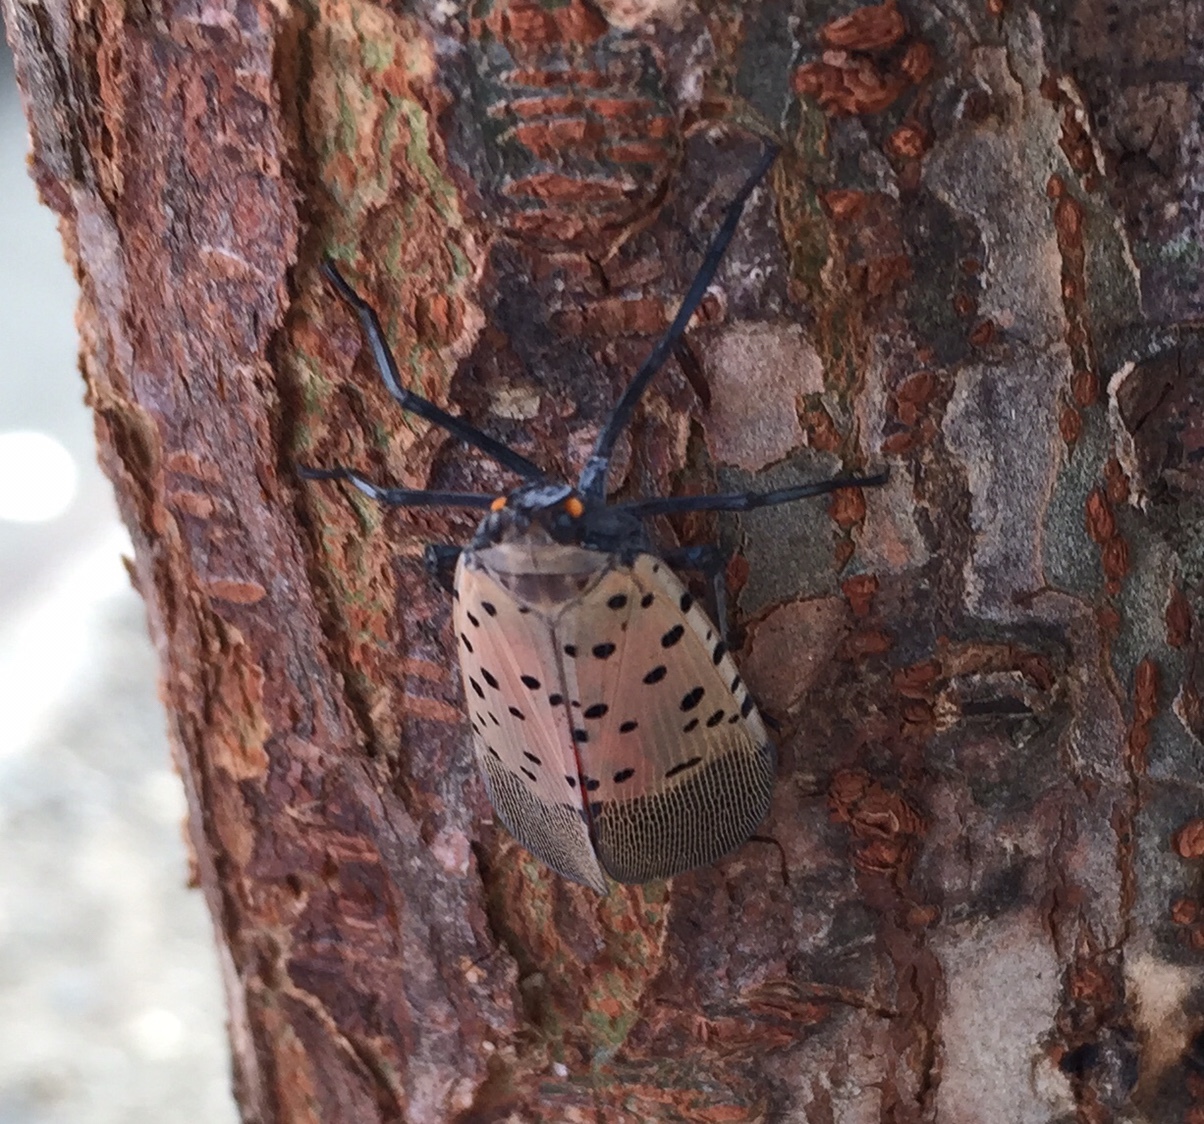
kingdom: Animalia
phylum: Arthropoda
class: Insecta
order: Hemiptera
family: Fulgoridae
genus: Lycorma
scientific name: Lycorma delicatula
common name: Spotted lanternfly
